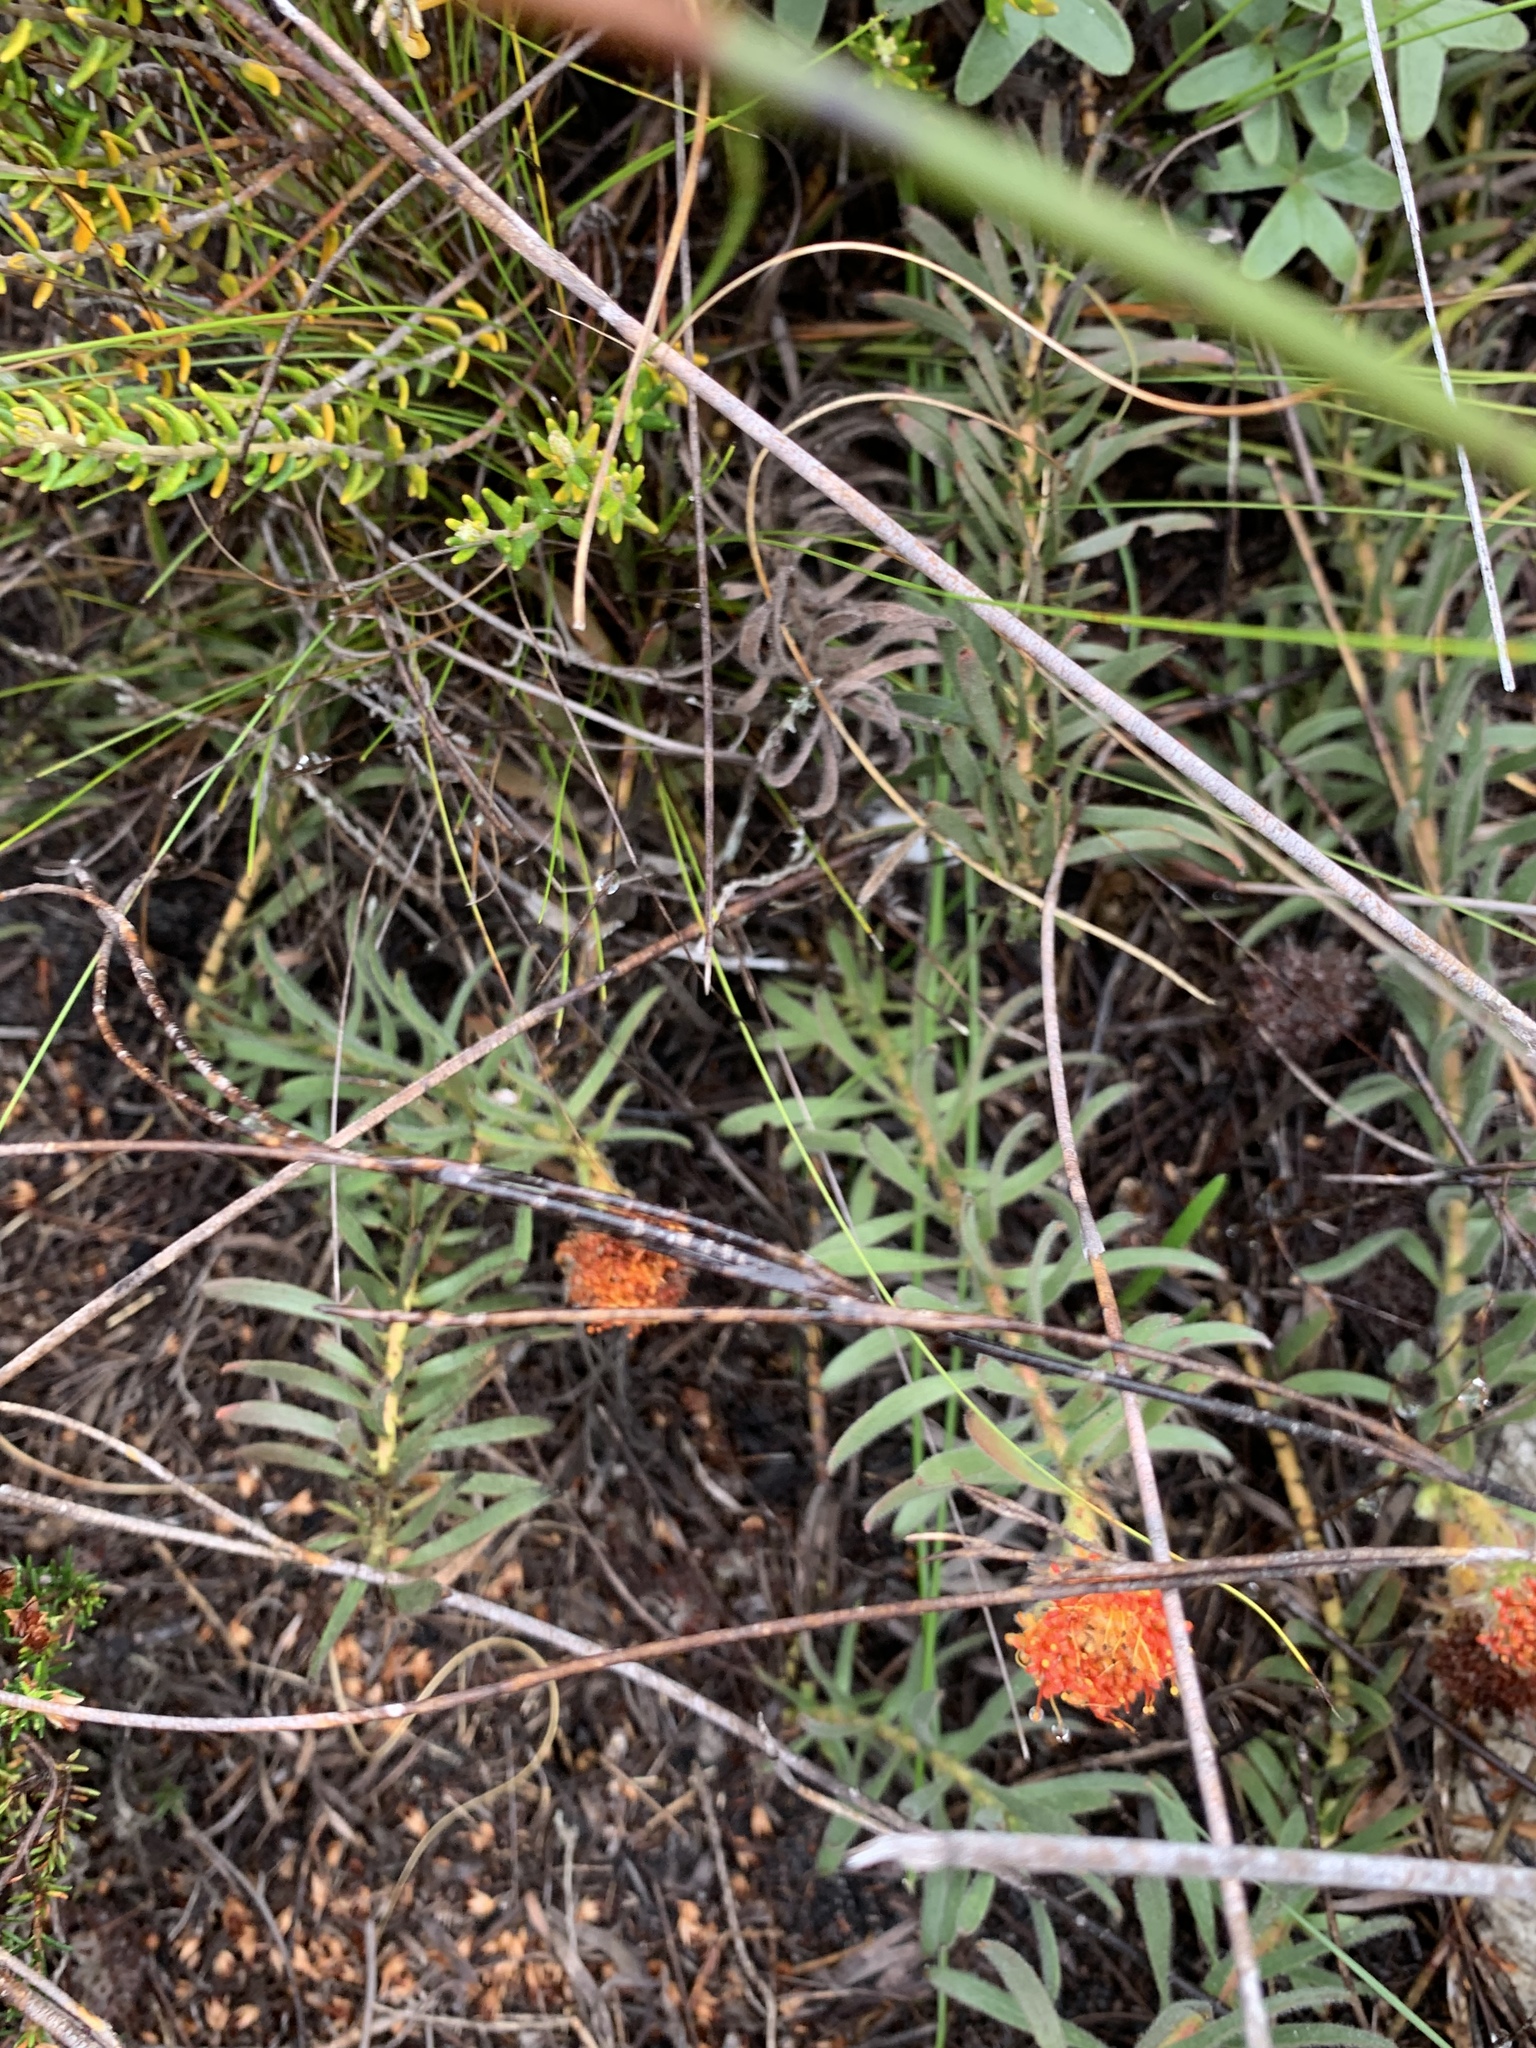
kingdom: Plantae
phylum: Tracheophyta
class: Magnoliopsida
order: Proteales
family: Proteaceae
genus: Leucospermum
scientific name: Leucospermum prostratum
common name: Yellow-trailing pincushion
